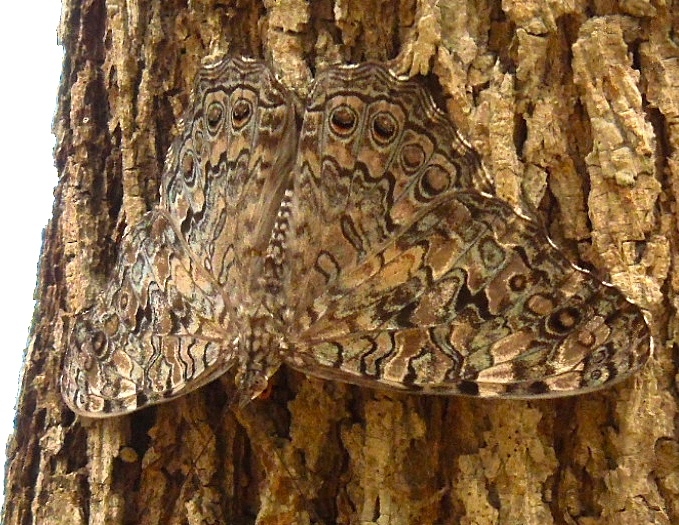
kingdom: Animalia
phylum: Arthropoda
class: Insecta
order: Lepidoptera
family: Nymphalidae
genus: Hamadryas
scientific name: Hamadryas februa
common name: Gray cracker
